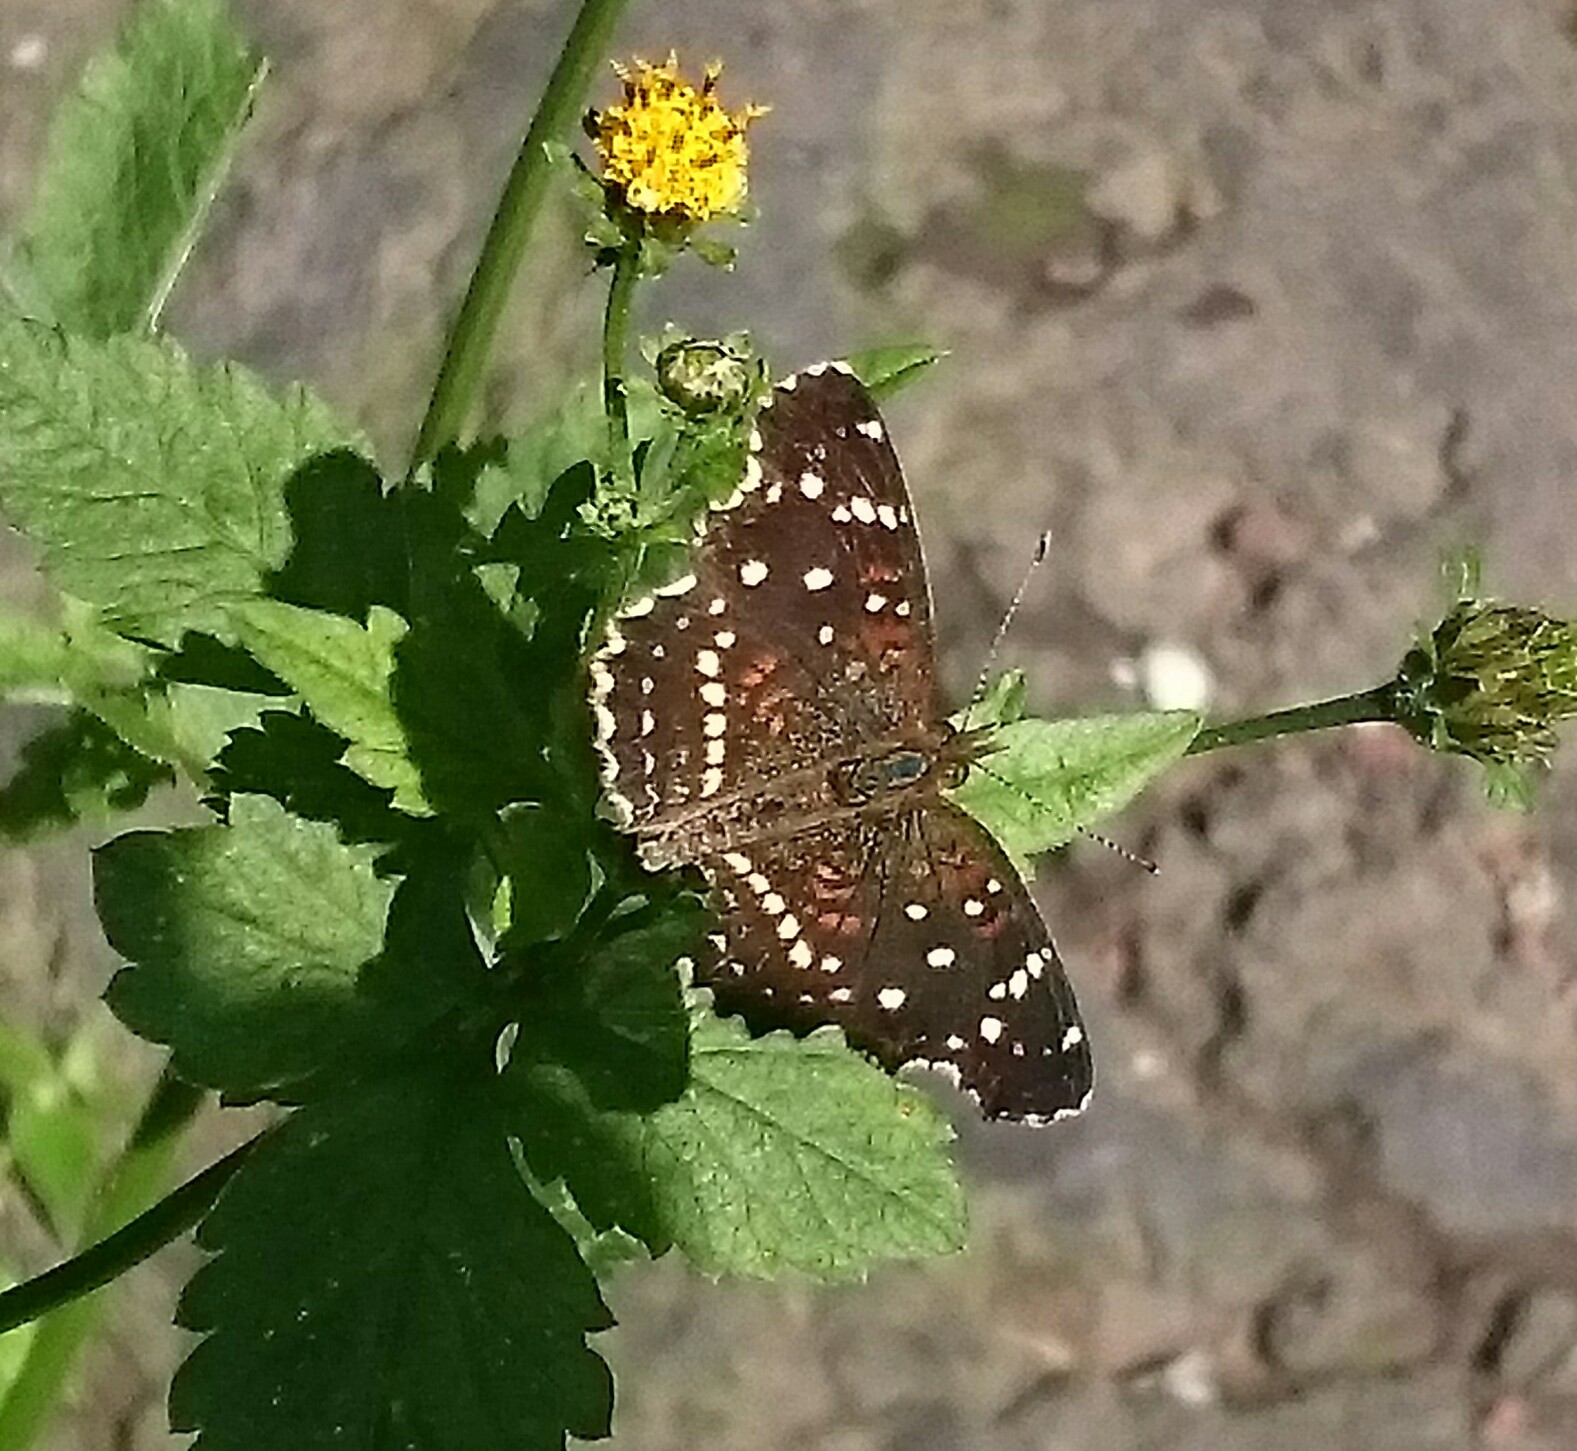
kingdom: Animalia
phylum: Arthropoda
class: Insecta
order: Lepidoptera
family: Nymphalidae
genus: Anthanassa
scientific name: Anthanassa texana
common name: Texan crescent
